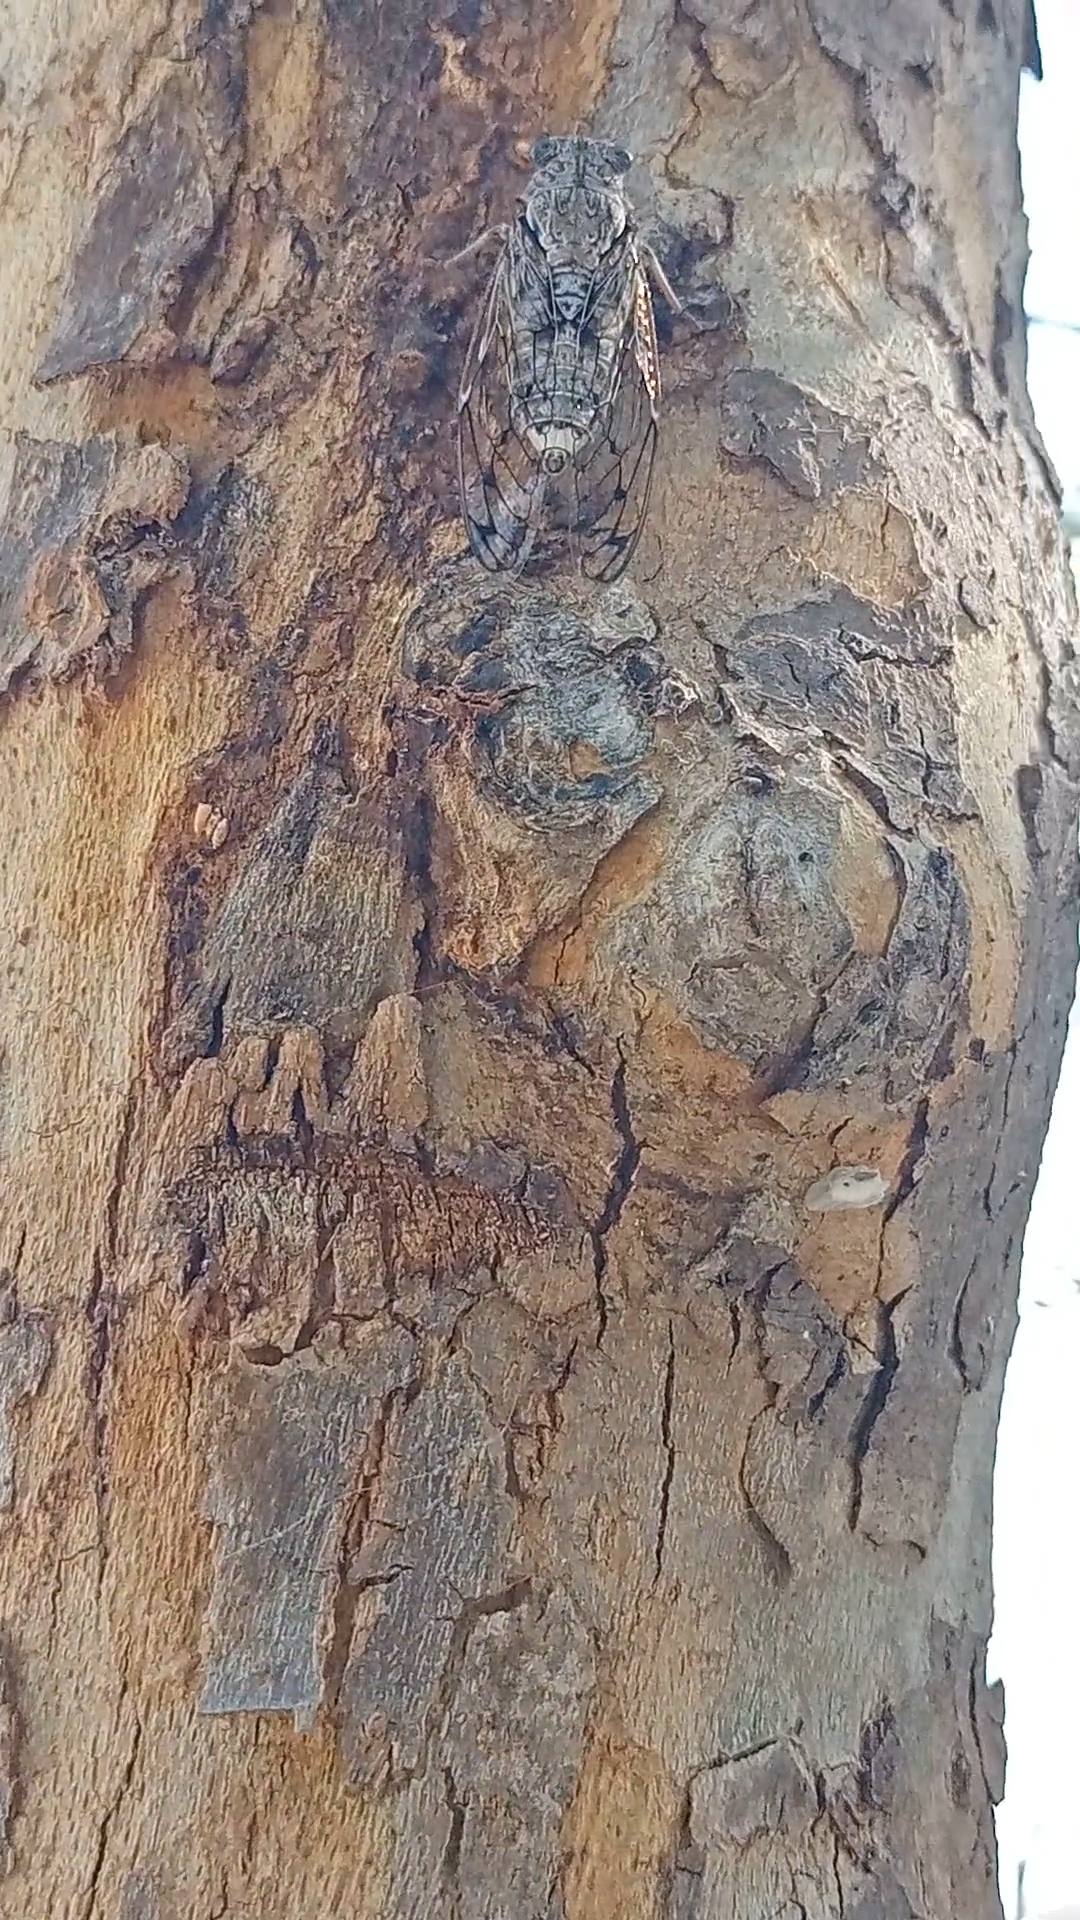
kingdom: Animalia
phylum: Arthropoda
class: Insecta
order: Hemiptera
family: Cicadidae
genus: Cicada
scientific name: Cicada mordoganensis
